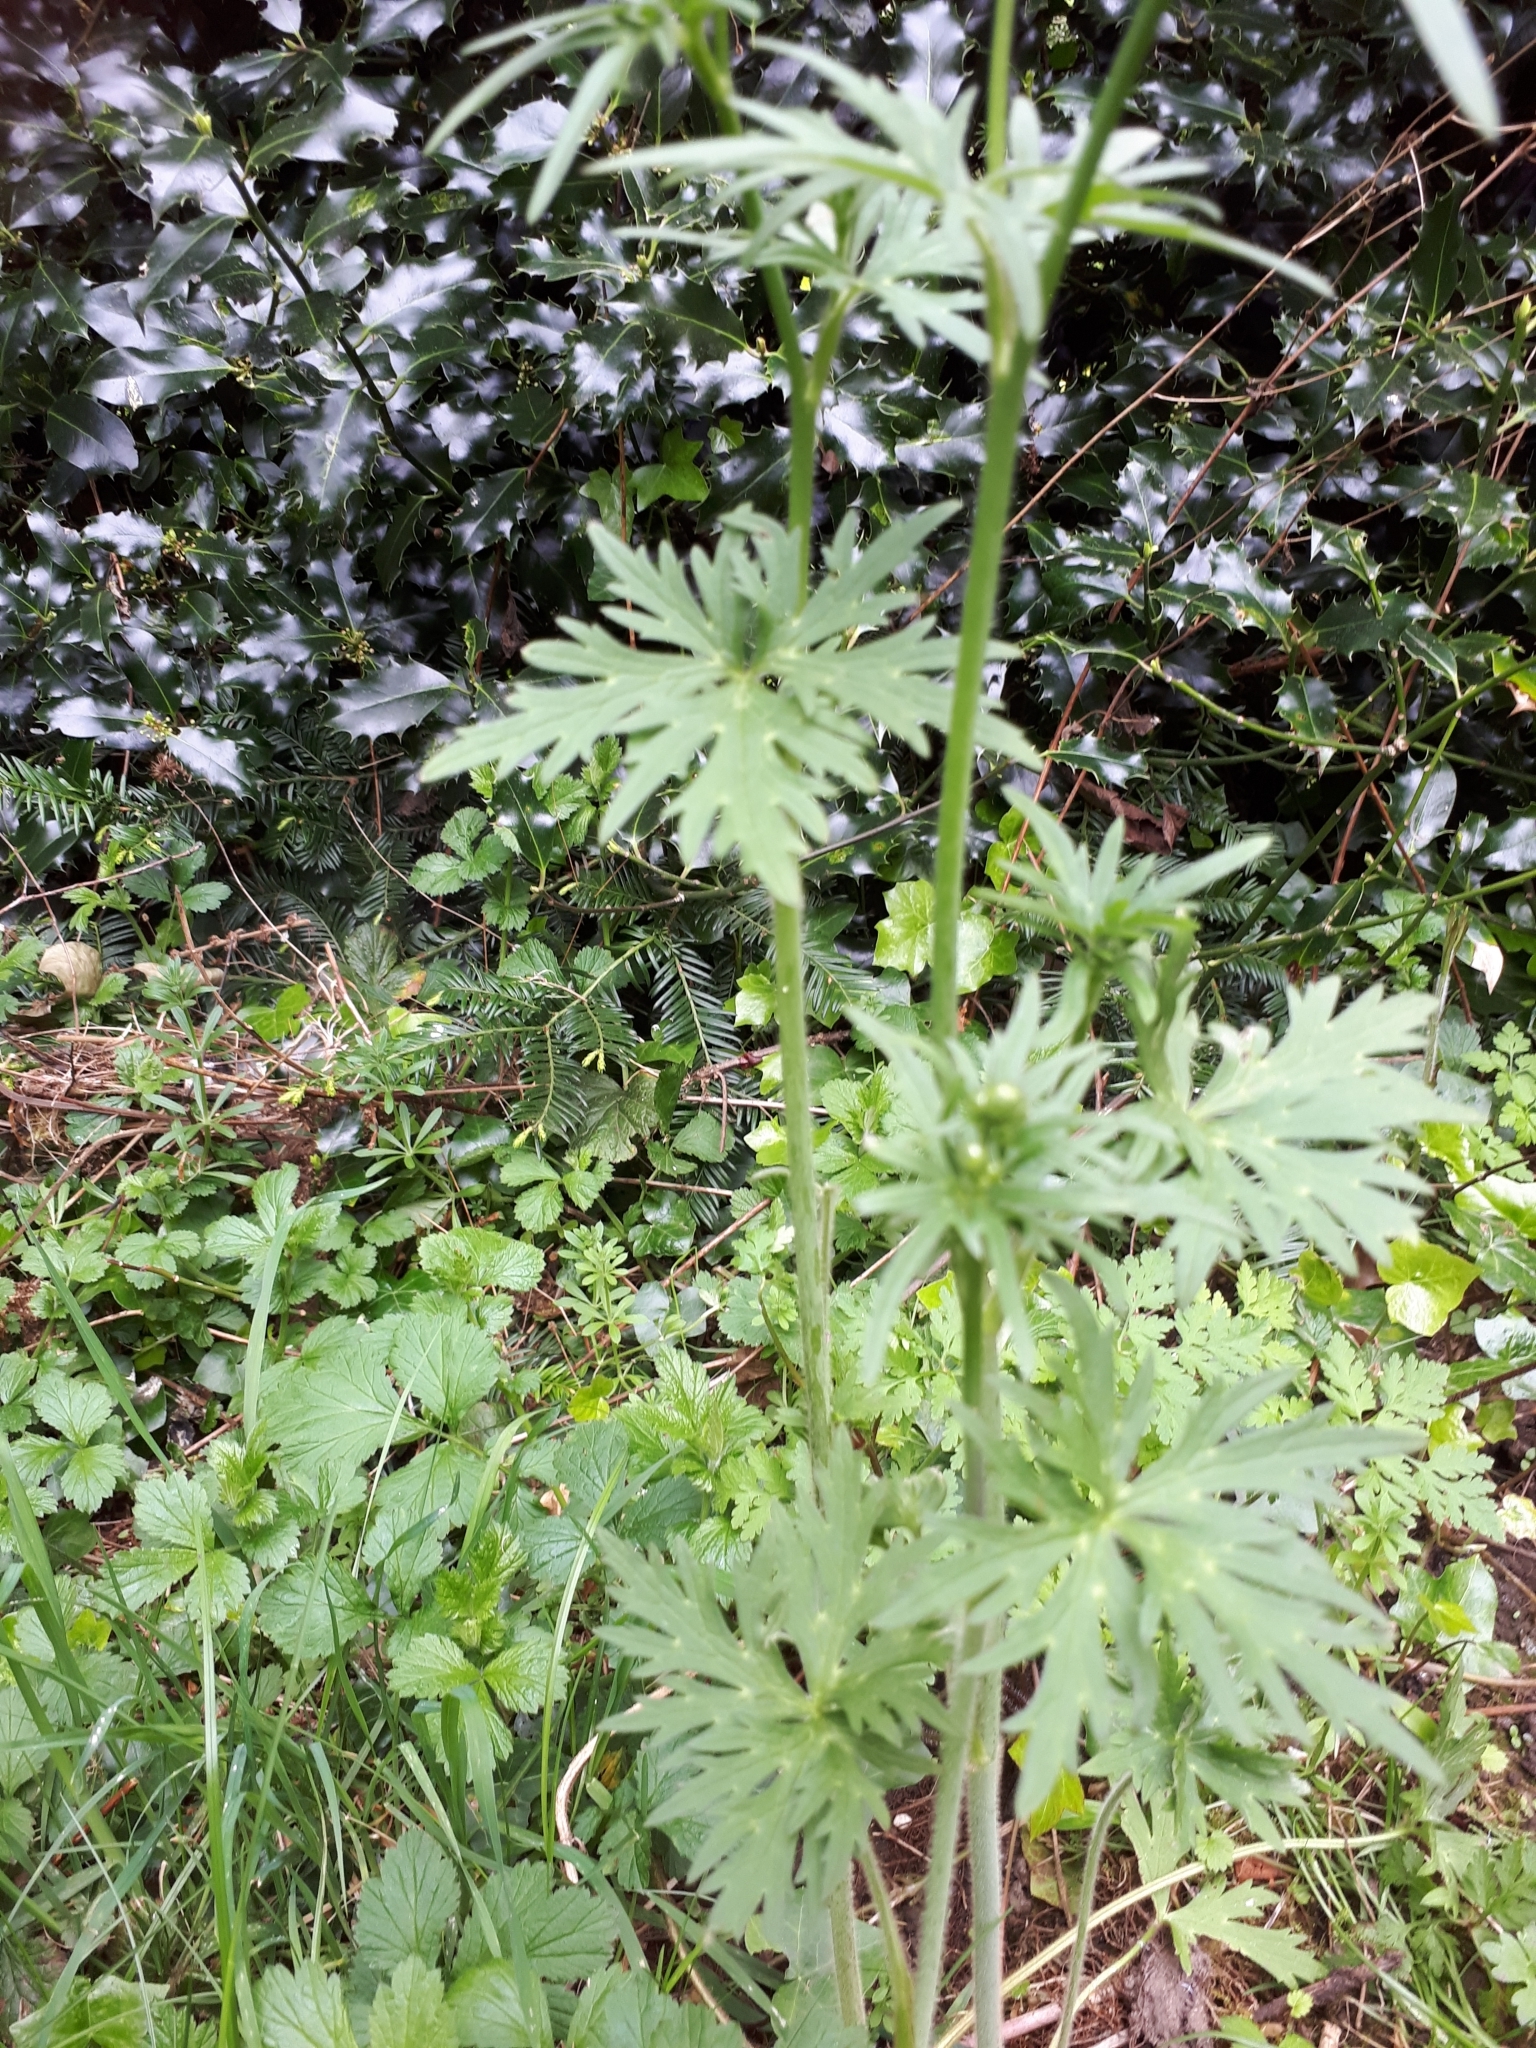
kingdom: Plantae
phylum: Tracheophyta
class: Magnoliopsida
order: Ranunculales
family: Ranunculaceae
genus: Ranunculus
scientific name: Ranunculus acris
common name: Meadow buttercup
